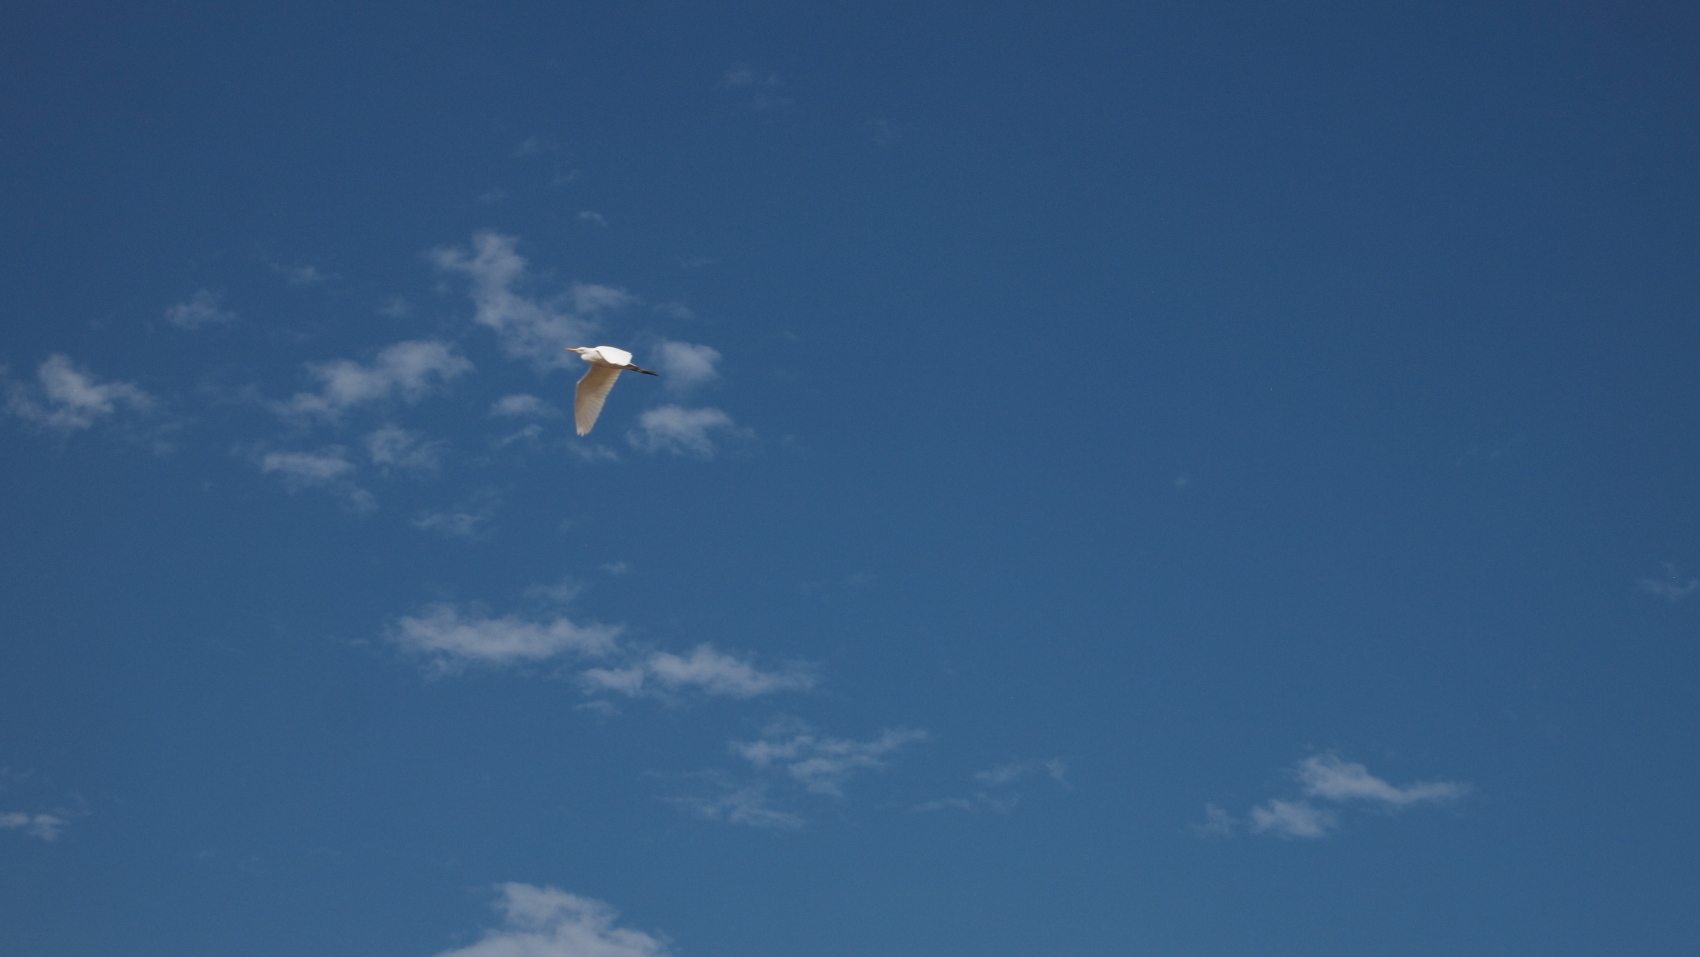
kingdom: Animalia
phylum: Chordata
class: Aves
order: Pelecaniformes
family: Ardeidae
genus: Bubulcus
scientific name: Bubulcus ibis
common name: Cattle egret
